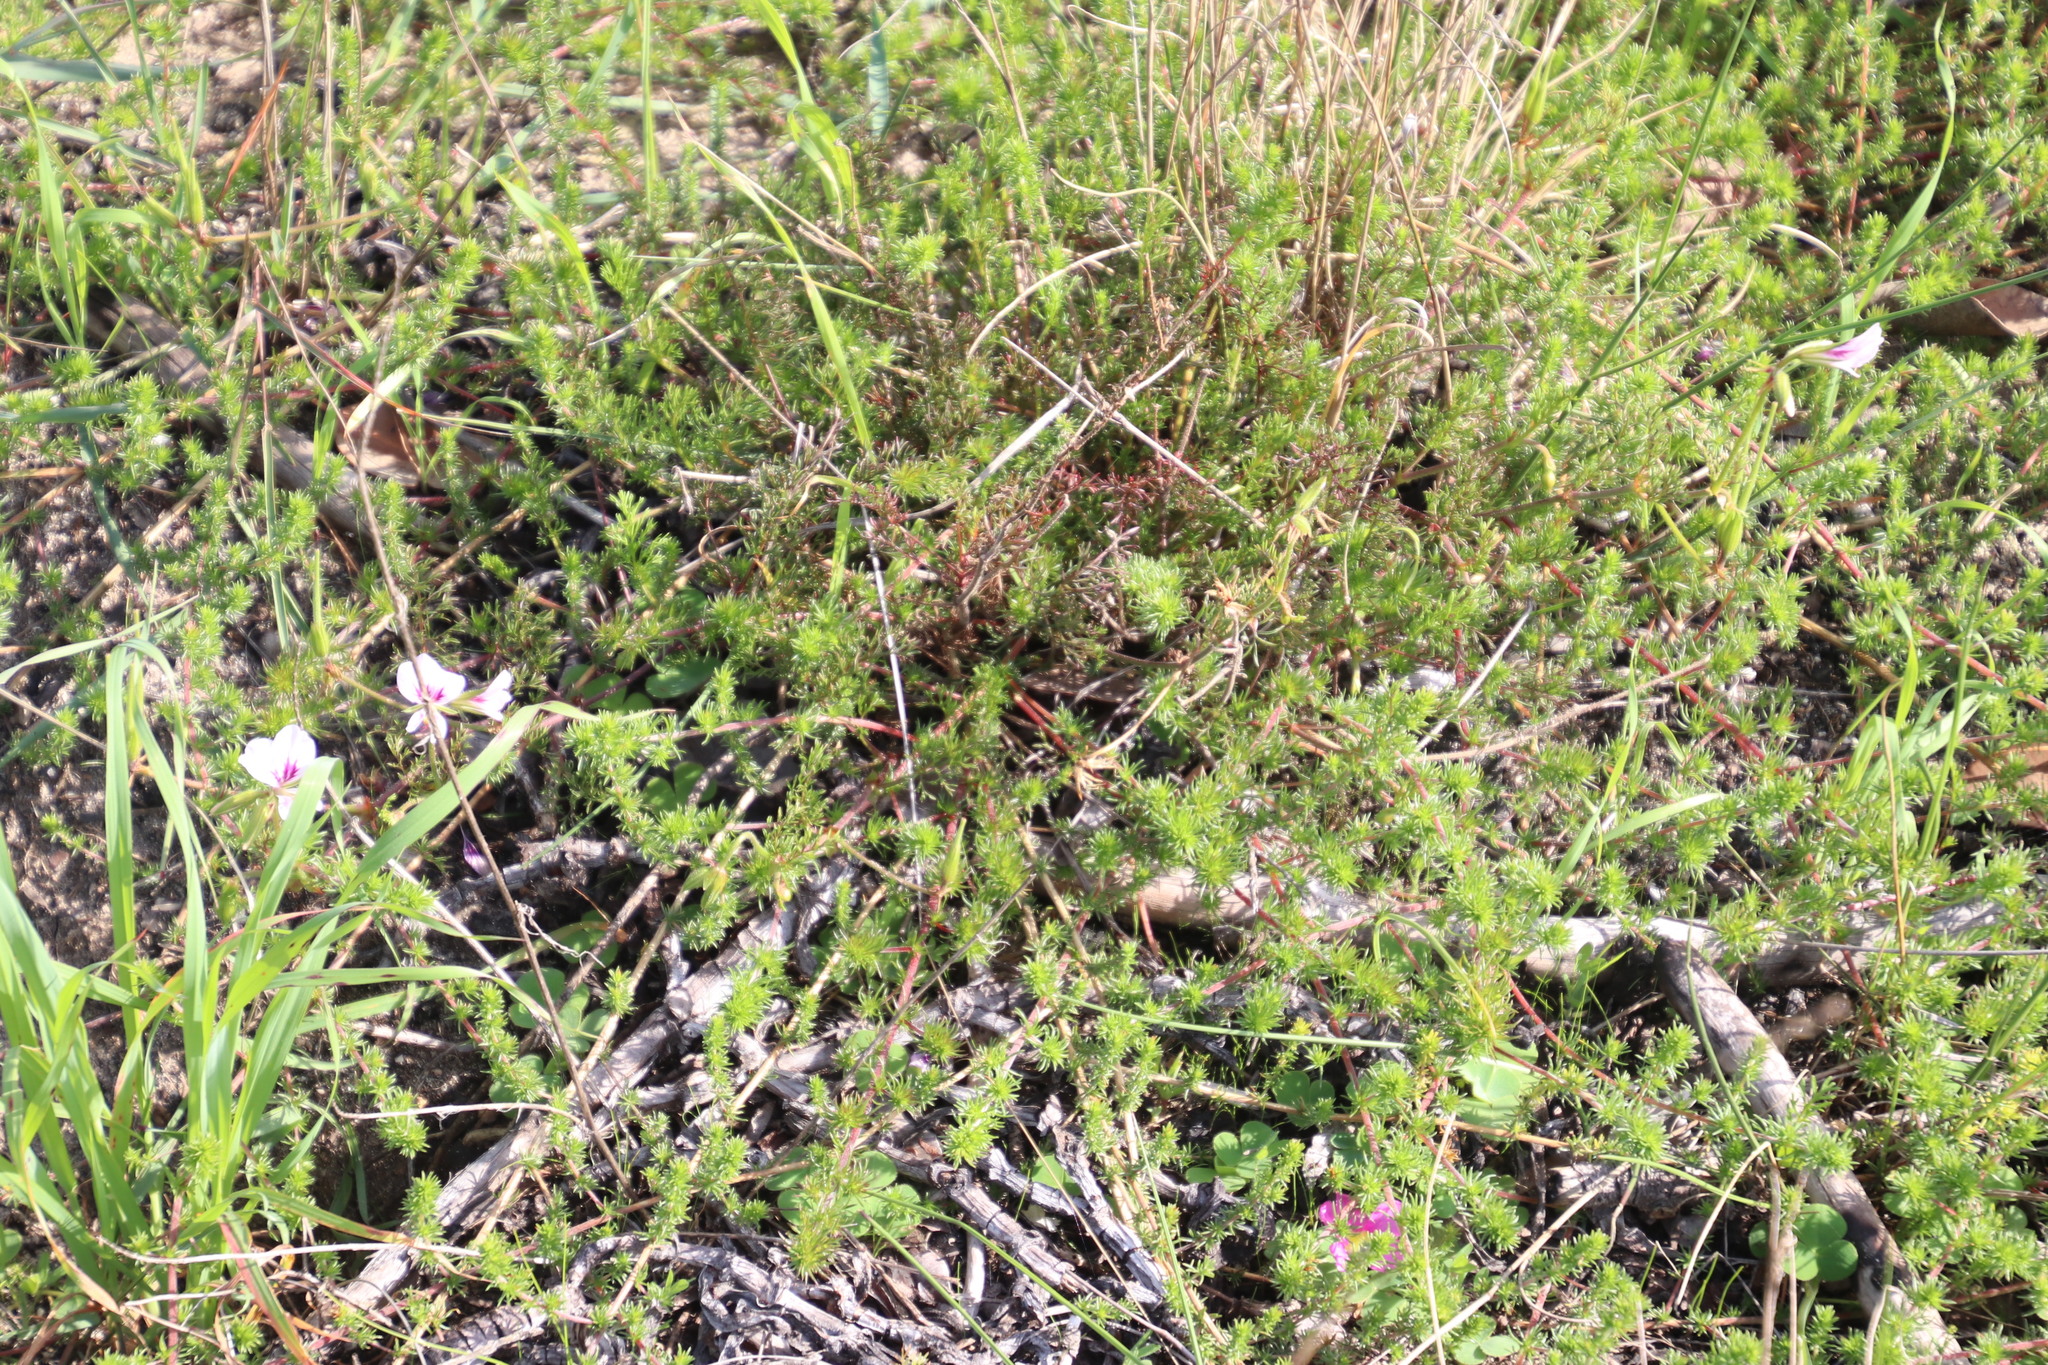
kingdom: Plantae
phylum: Tracheophyta
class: Magnoliopsida
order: Geraniales
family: Geraniaceae
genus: Pelargonium
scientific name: Pelargonium myrrhifolium
